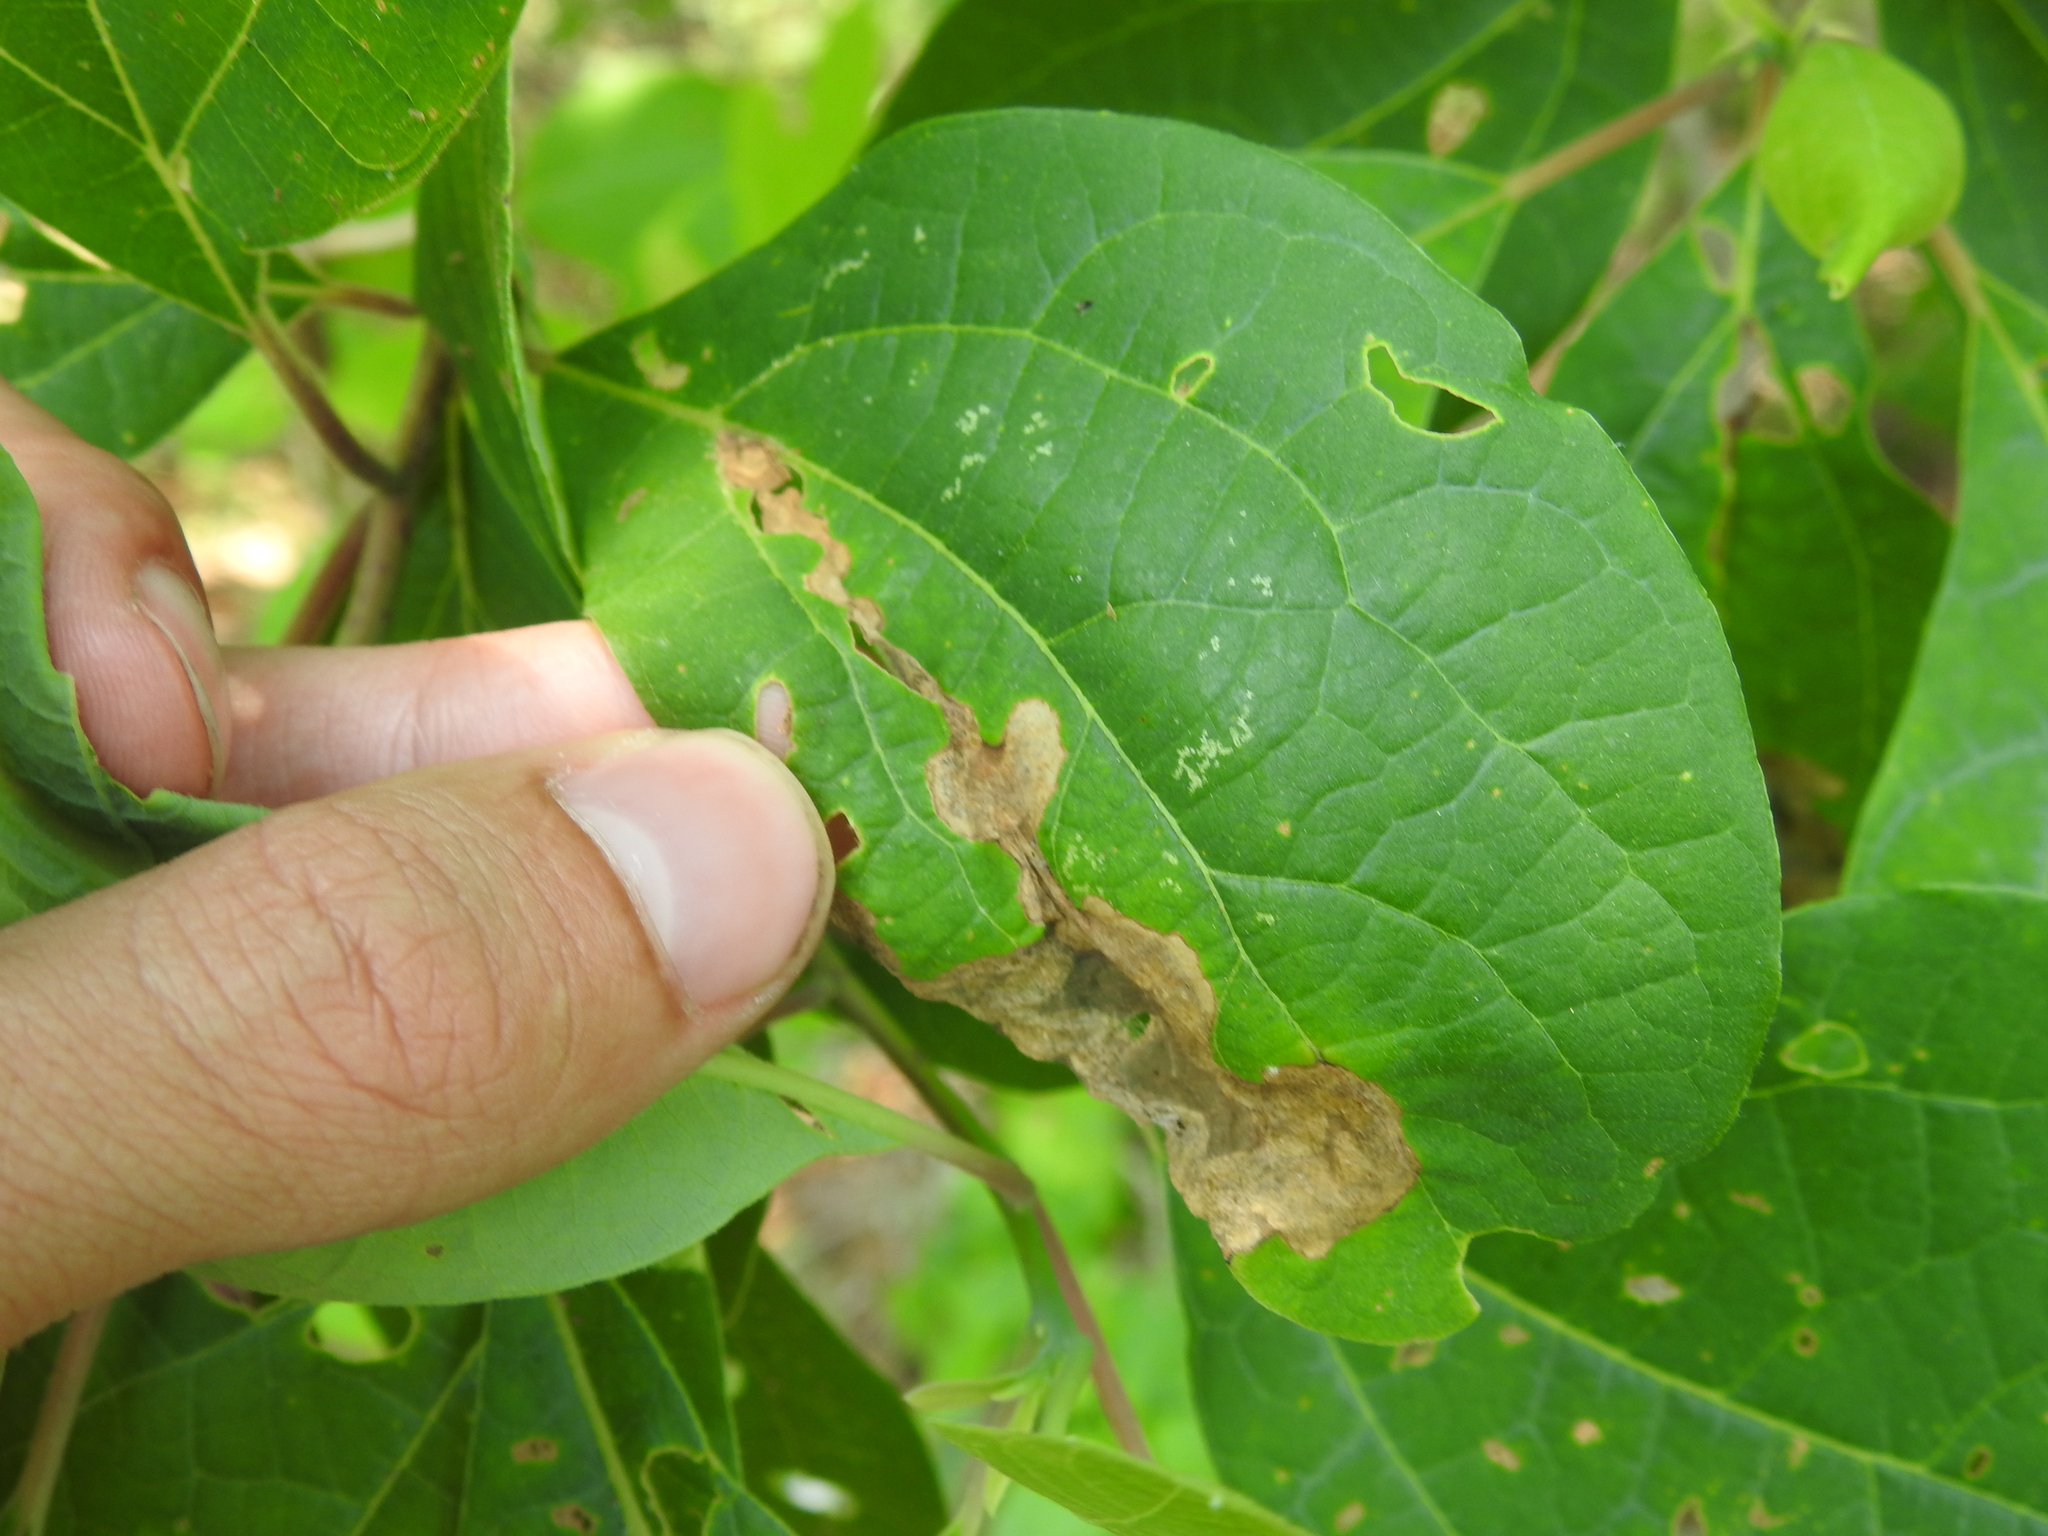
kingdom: Animalia
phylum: Arthropoda
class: Insecta
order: Coleoptera
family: Curculionidae
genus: Odontopus
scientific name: Odontopus calceatus
